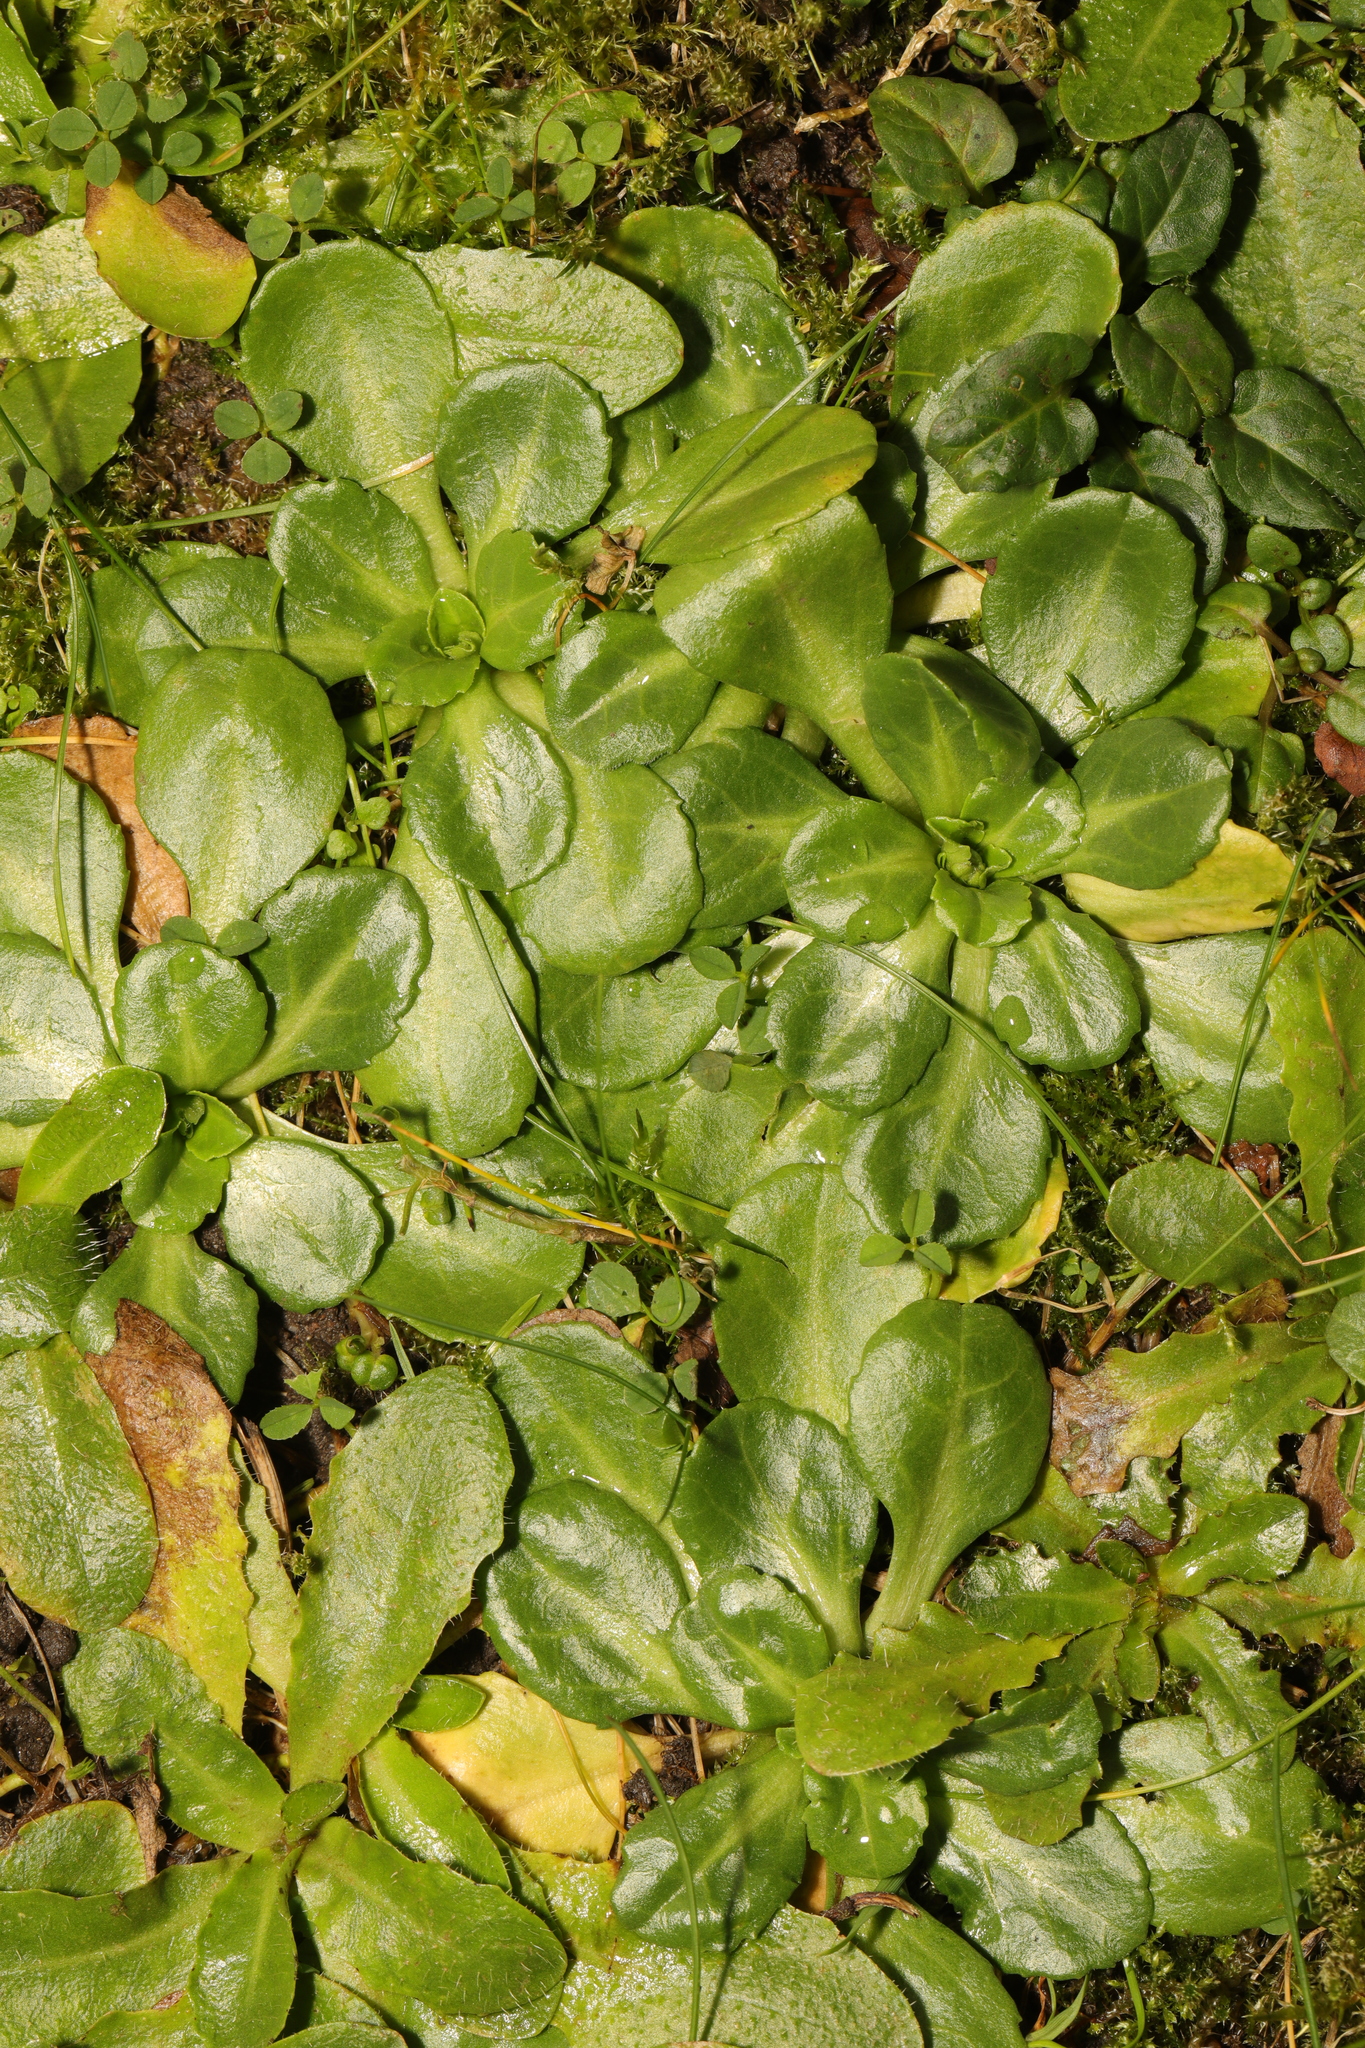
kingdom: Plantae
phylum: Tracheophyta
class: Magnoliopsida
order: Asterales
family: Asteraceae
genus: Bellis
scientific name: Bellis perennis
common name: Lawndaisy
